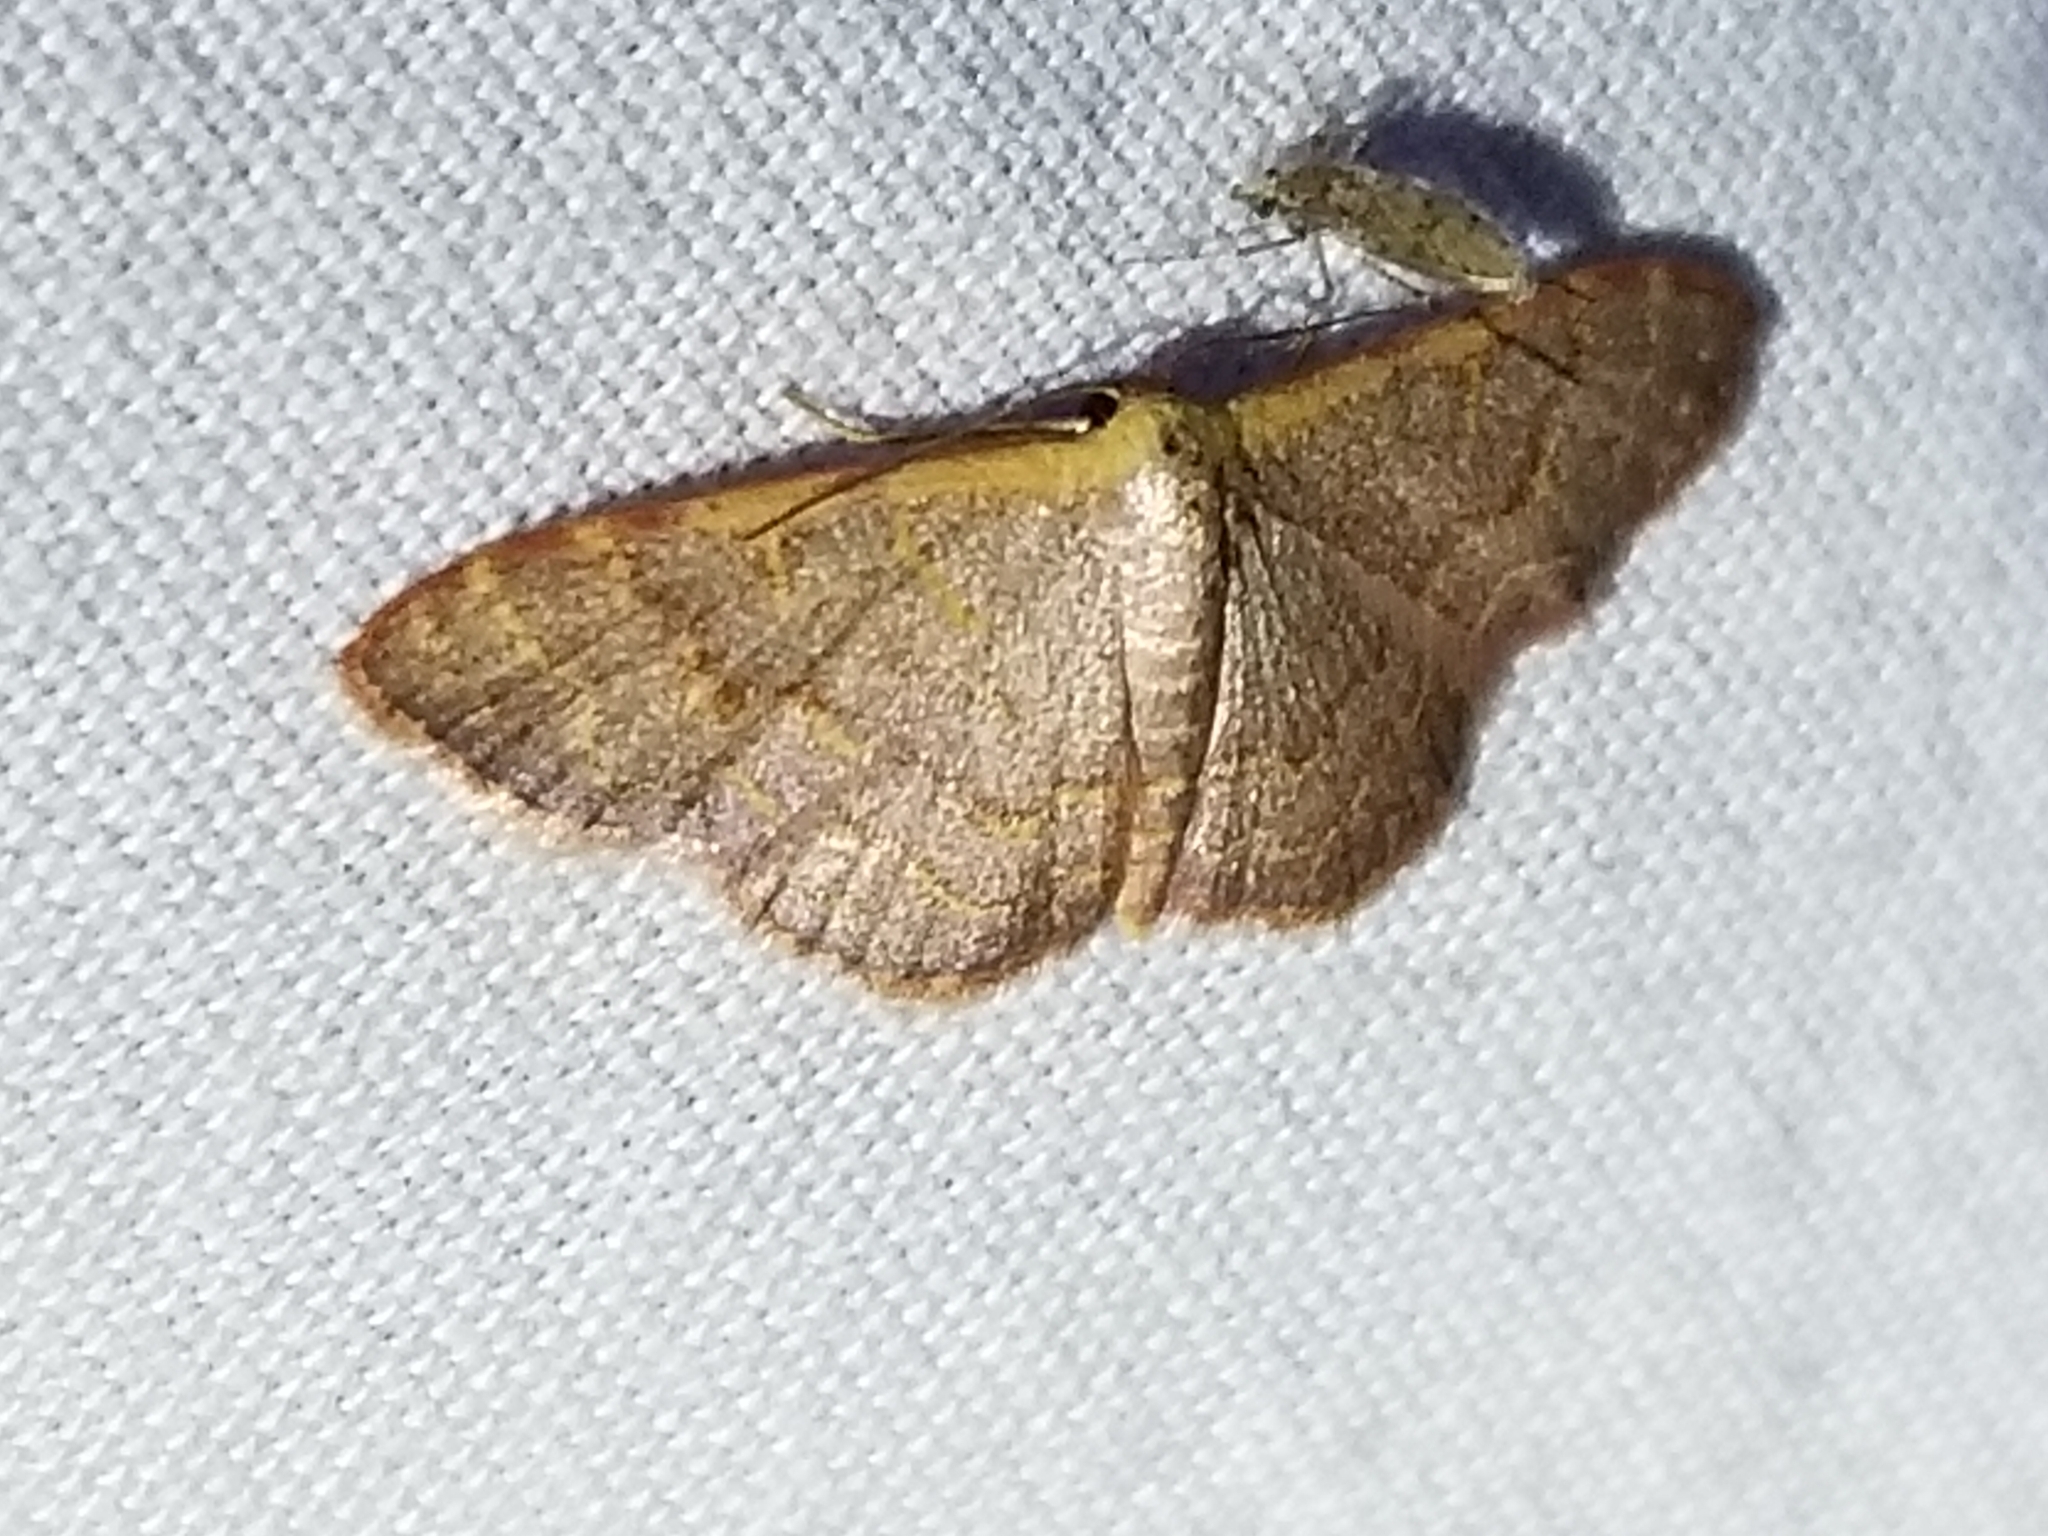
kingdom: Animalia
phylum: Arthropoda
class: Insecta
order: Lepidoptera
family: Geometridae
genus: Leptostales
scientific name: Leptostales pannaria
